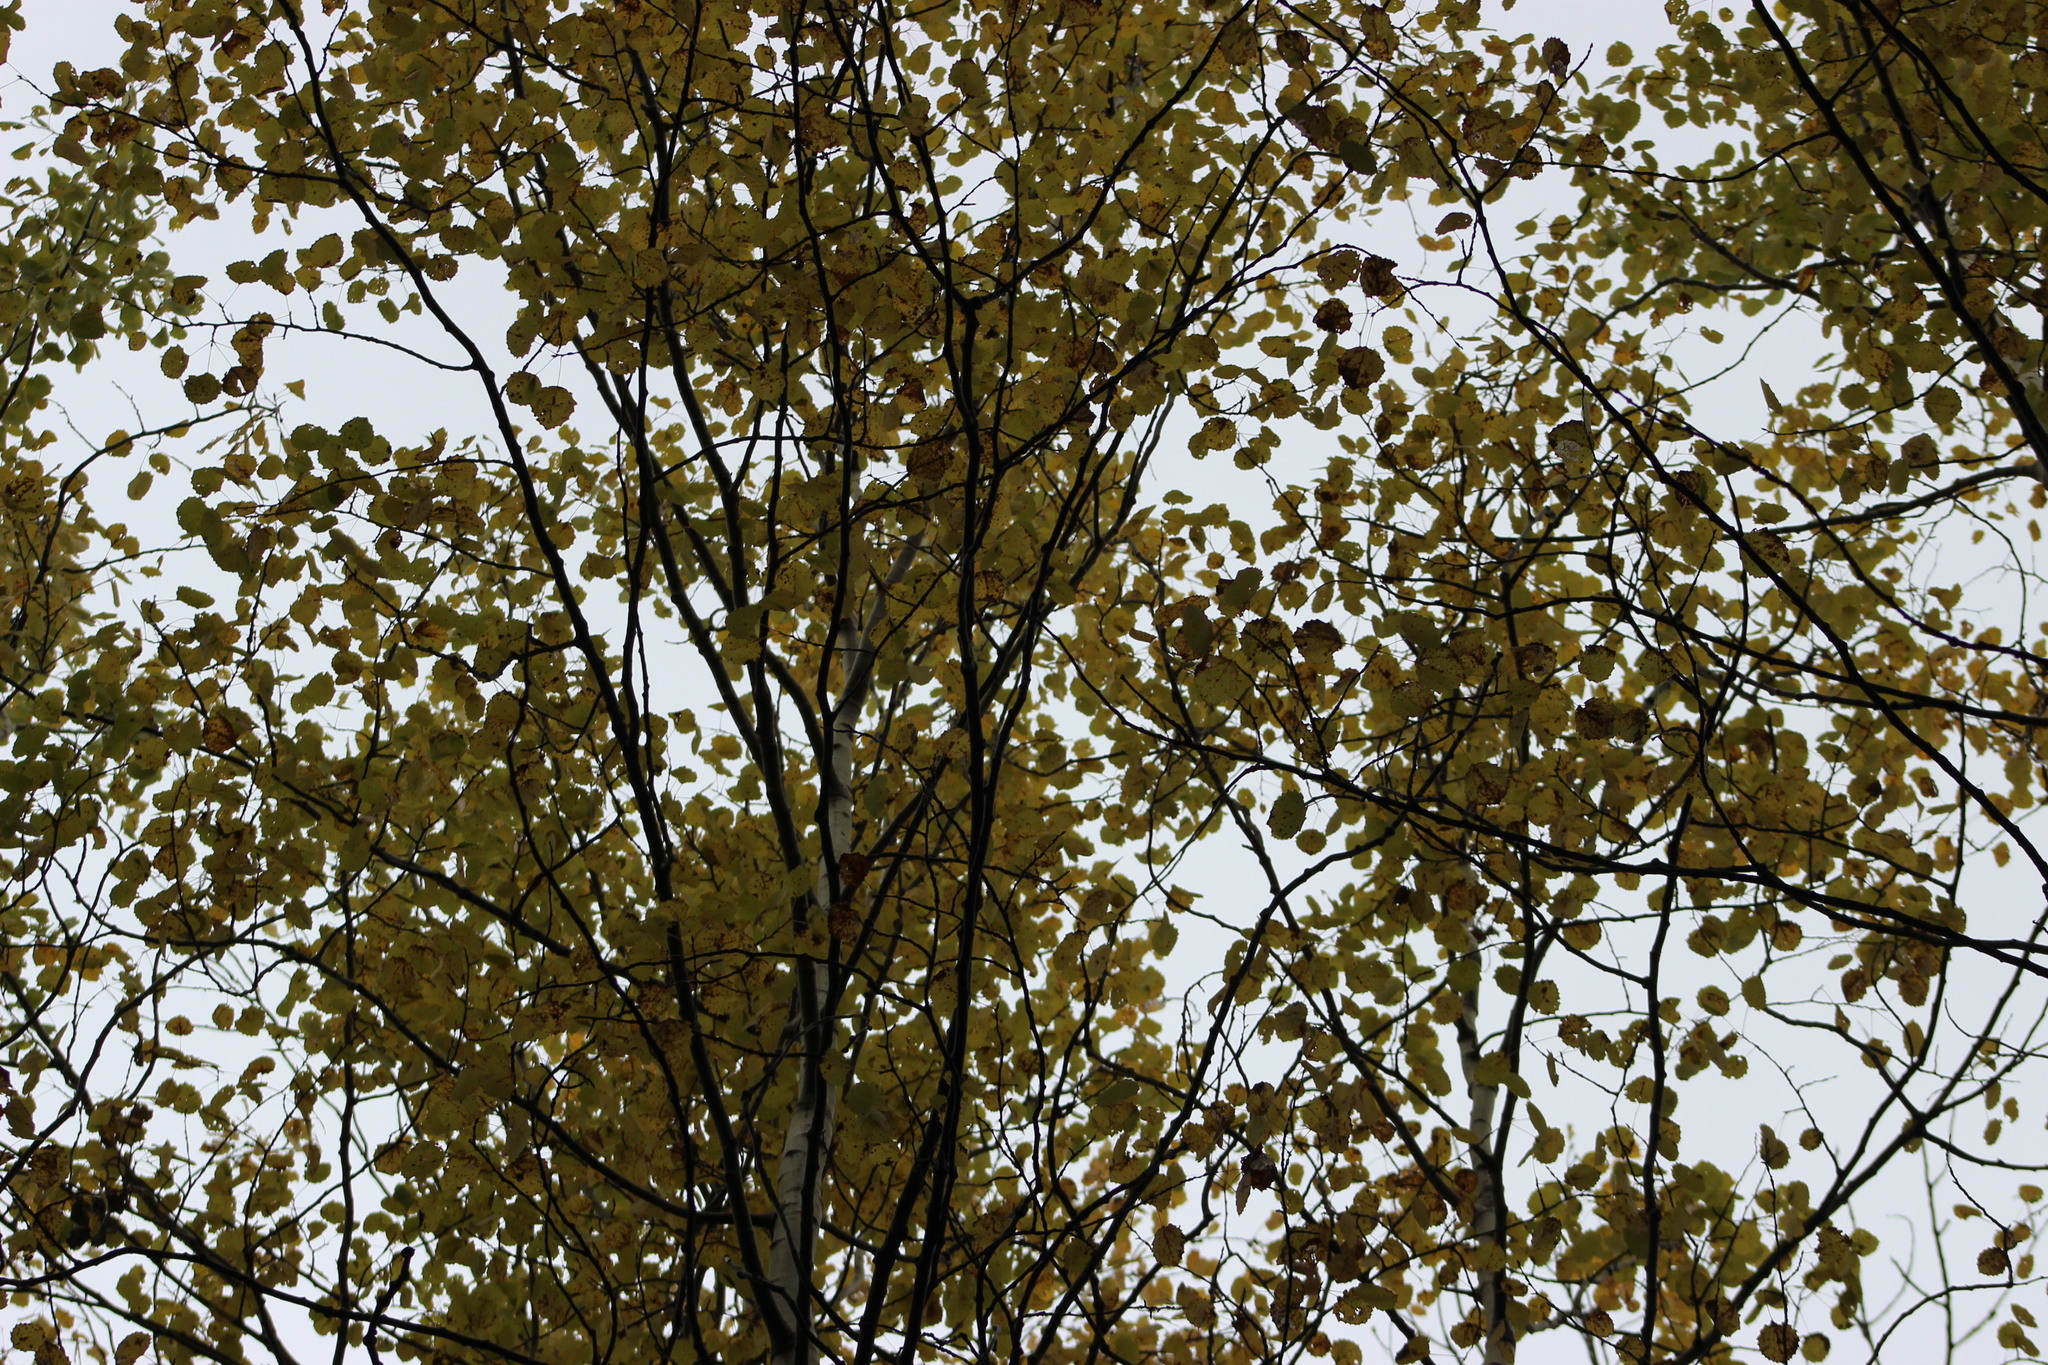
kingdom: Plantae
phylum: Tracheophyta
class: Magnoliopsida
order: Malpighiales
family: Salicaceae
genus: Populus
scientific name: Populus tremula
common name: European aspen
